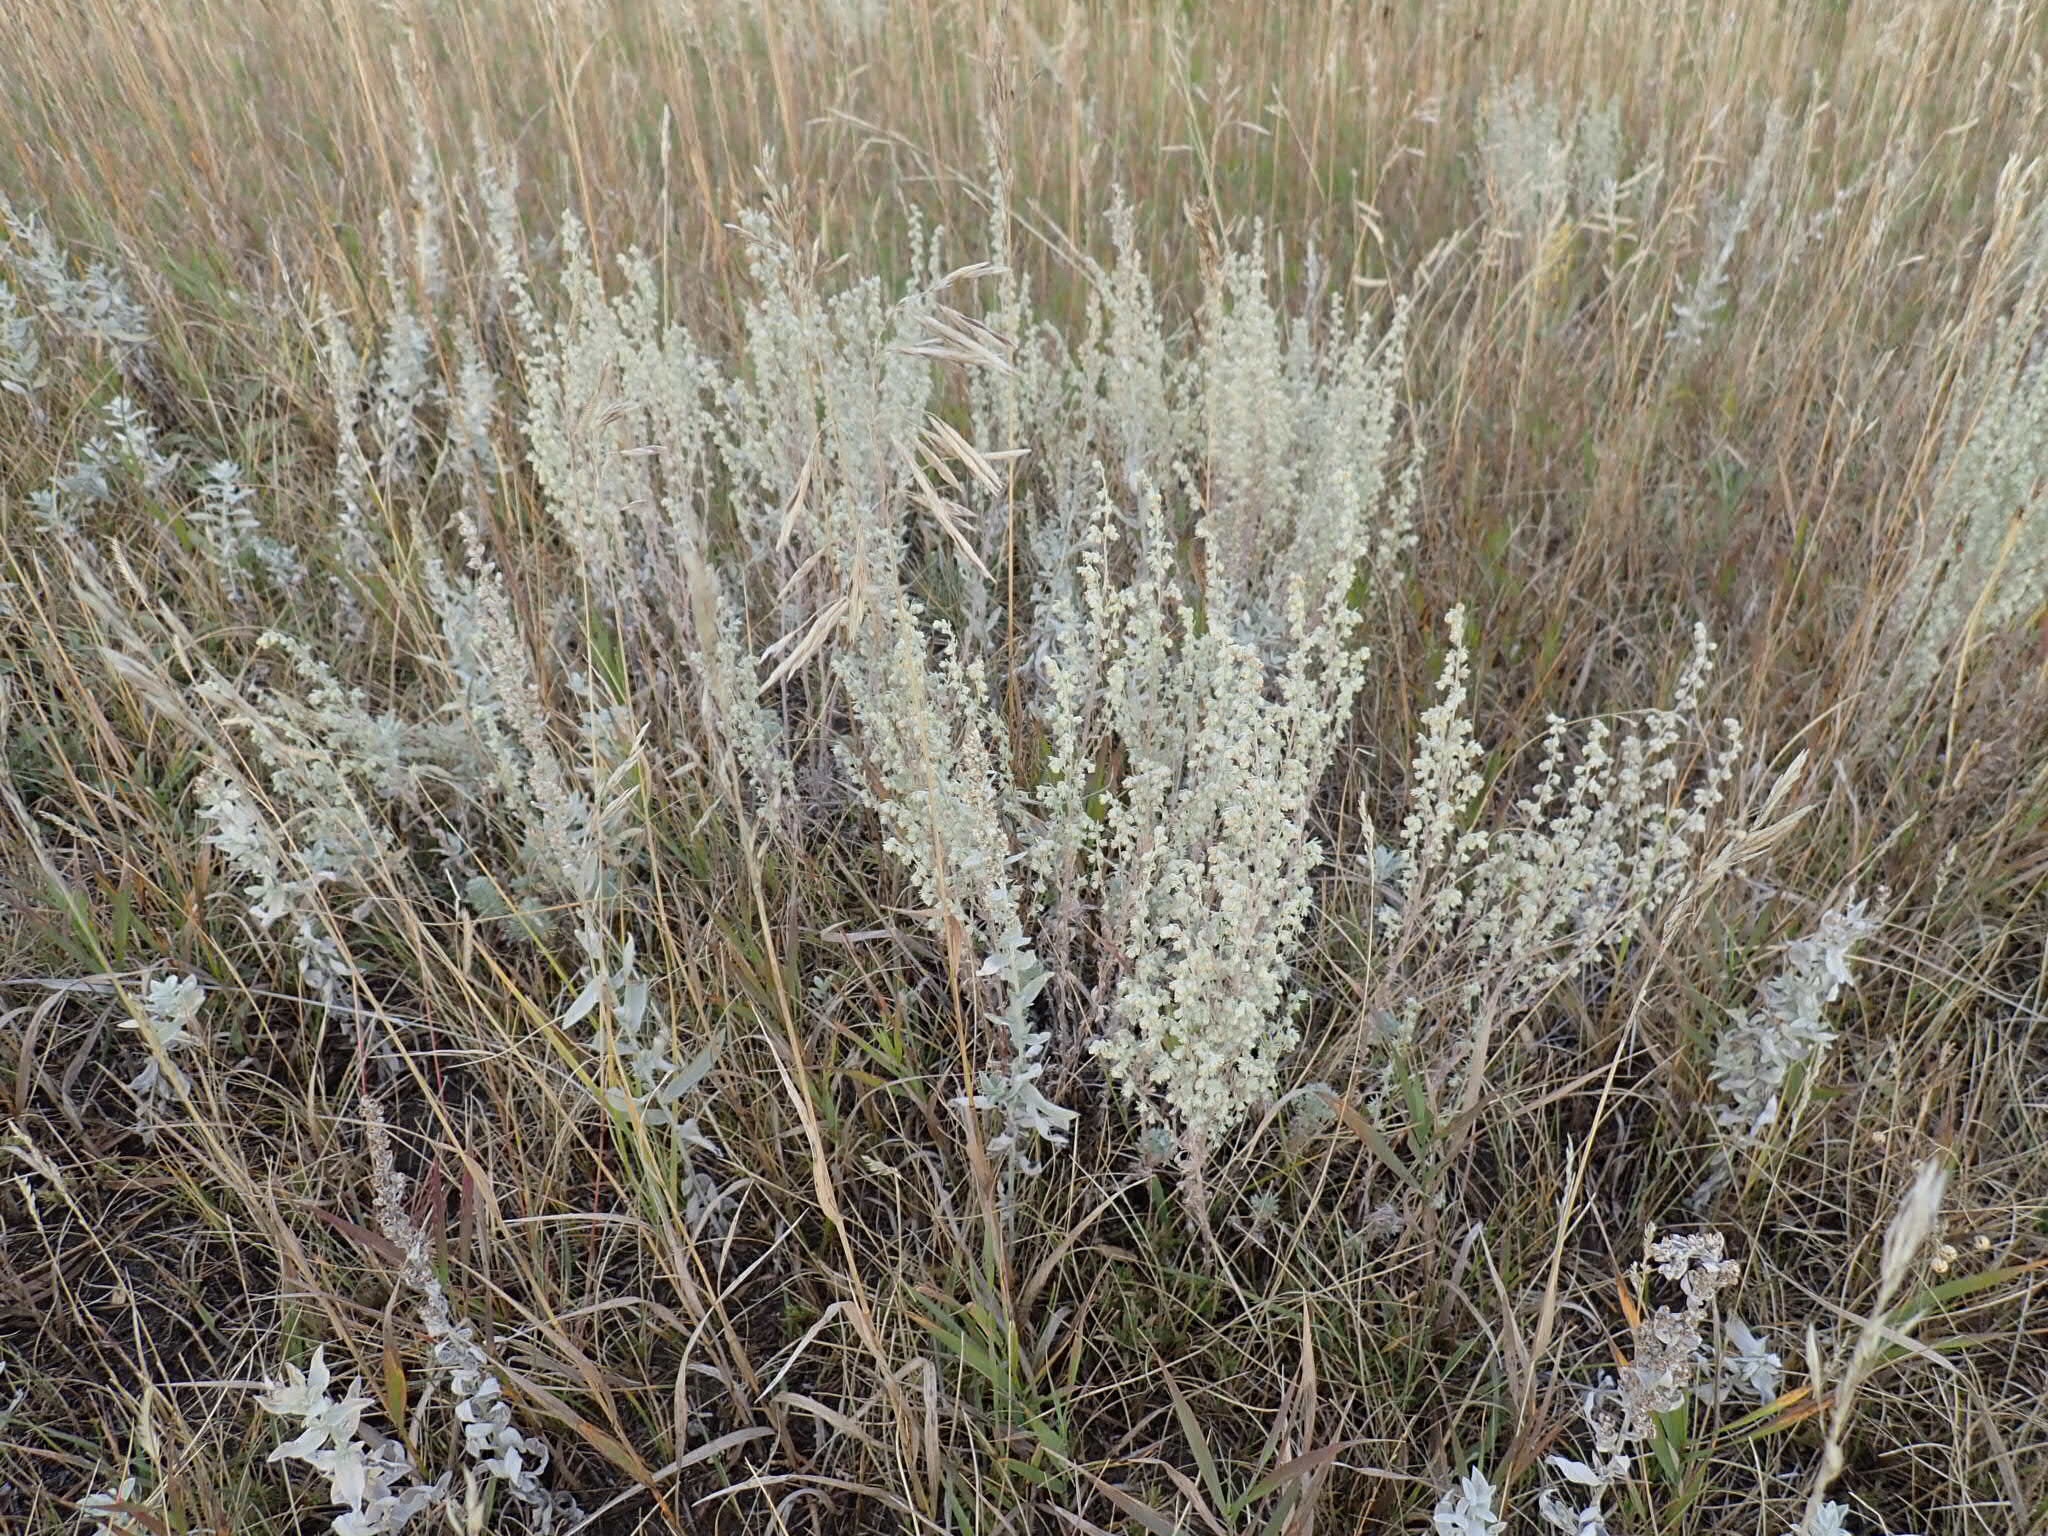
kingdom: Plantae
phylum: Tracheophyta
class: Magnoliopsida
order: Asterales
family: Asteraceae
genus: Artemisia
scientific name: Artemisia frigida
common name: Prairie sagewort
